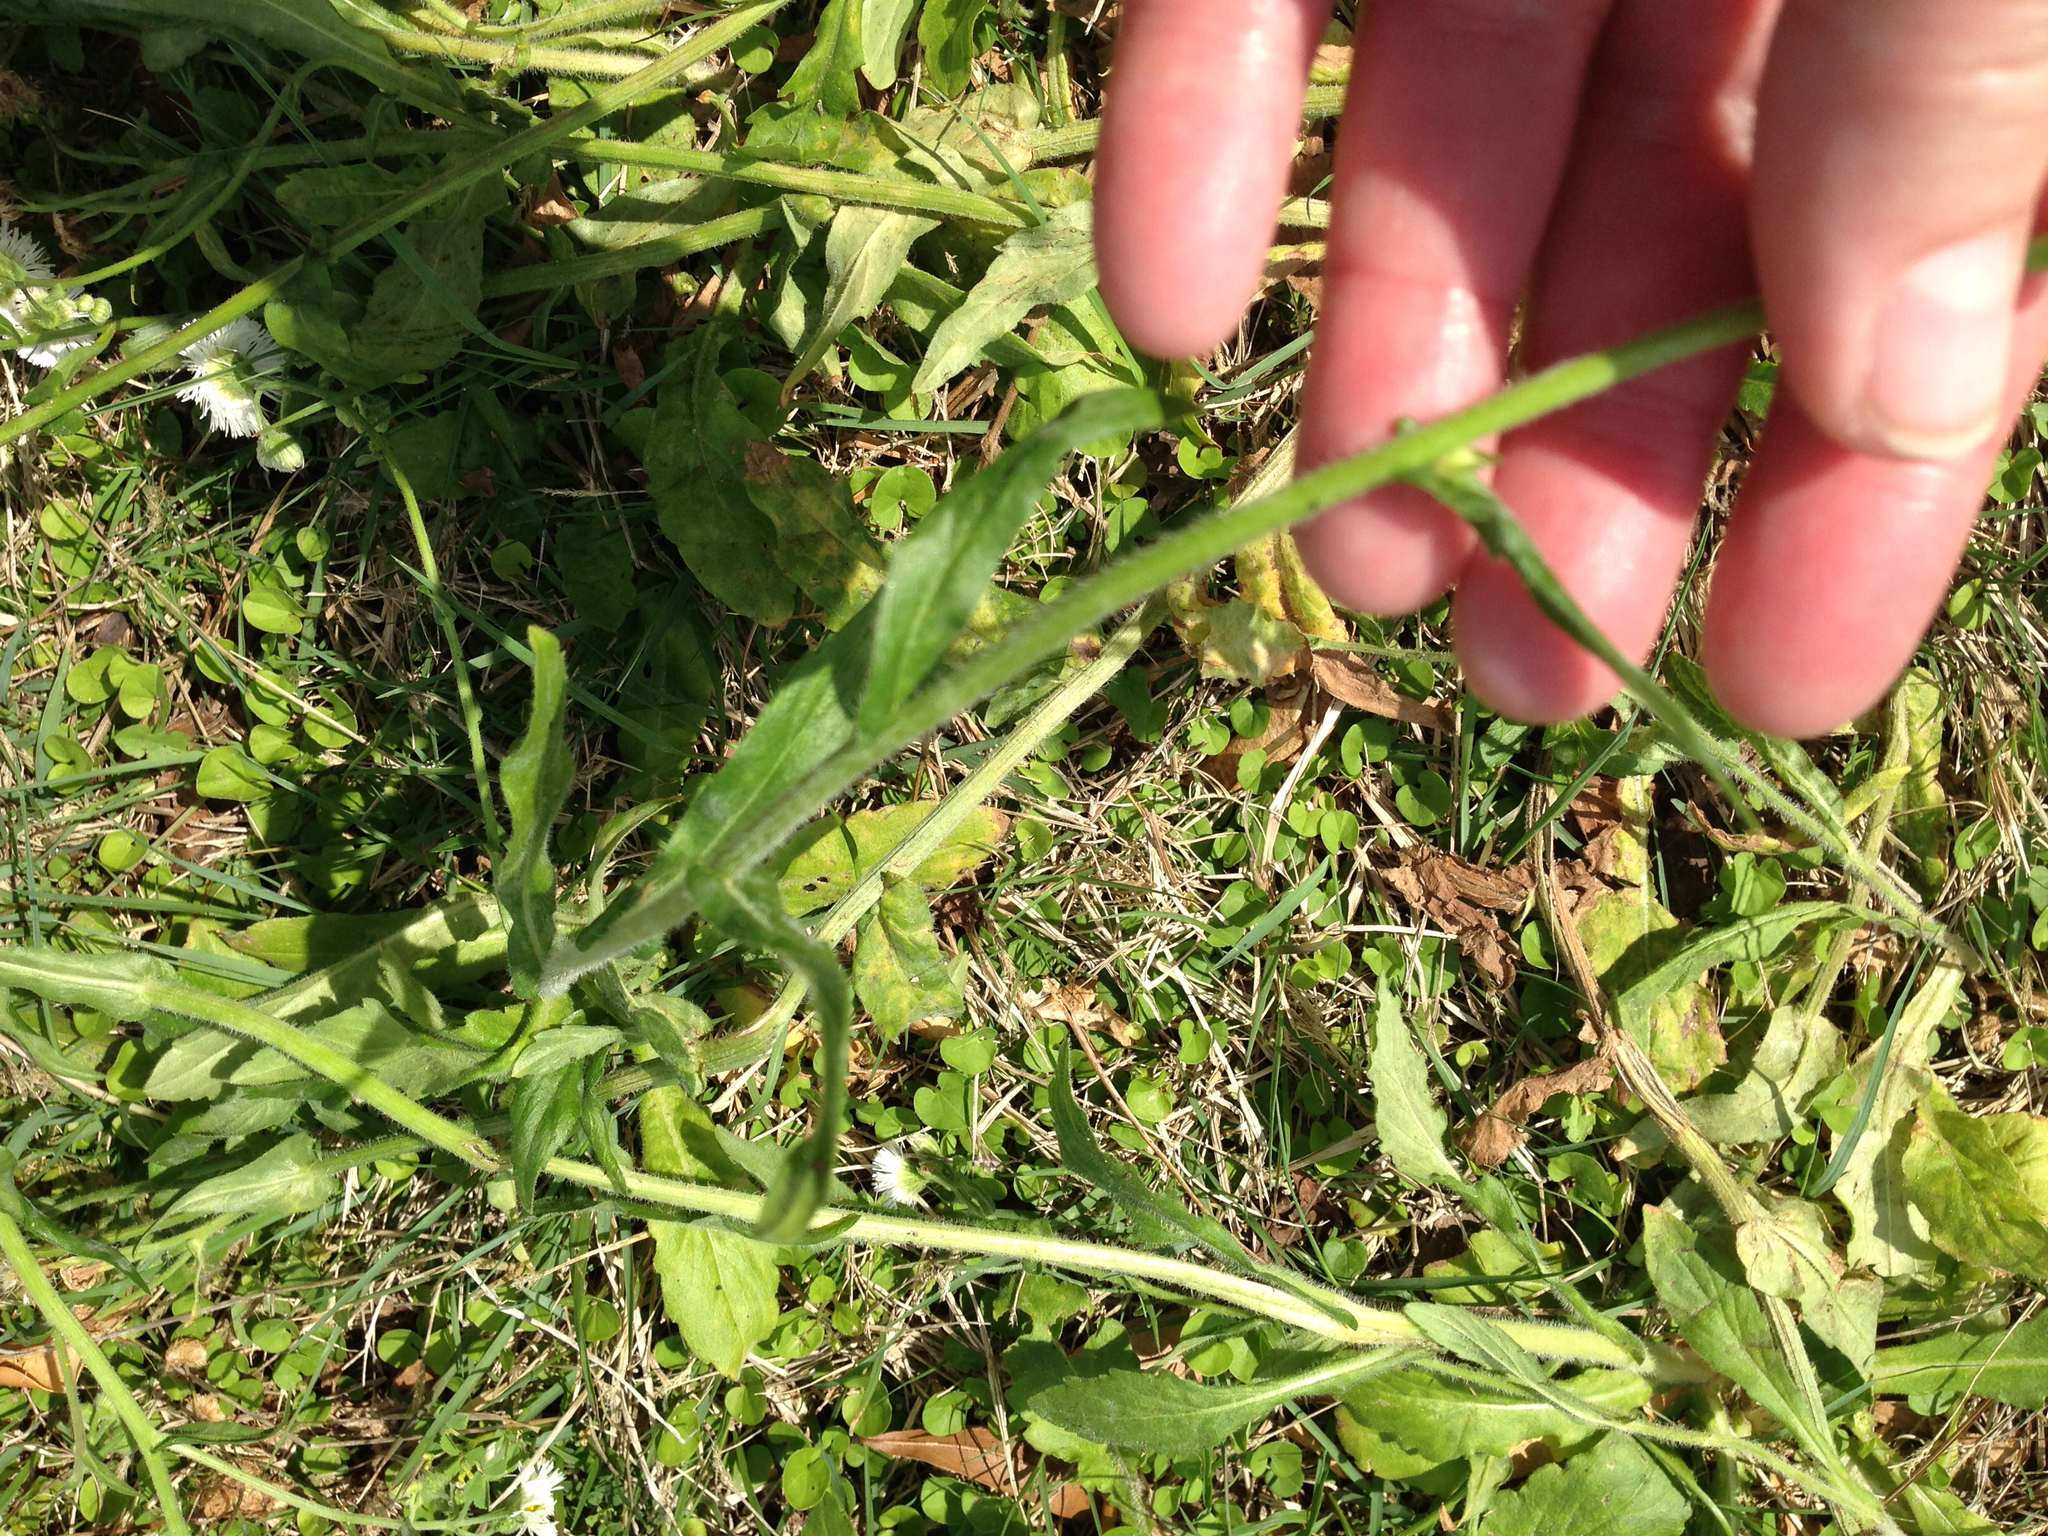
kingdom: Plantae
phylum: Tracheophyta
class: Magnoliopsida
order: Asterales
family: Asteraceae
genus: Erigeron
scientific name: Erigeron philadelphicus
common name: Robin's-plantain
